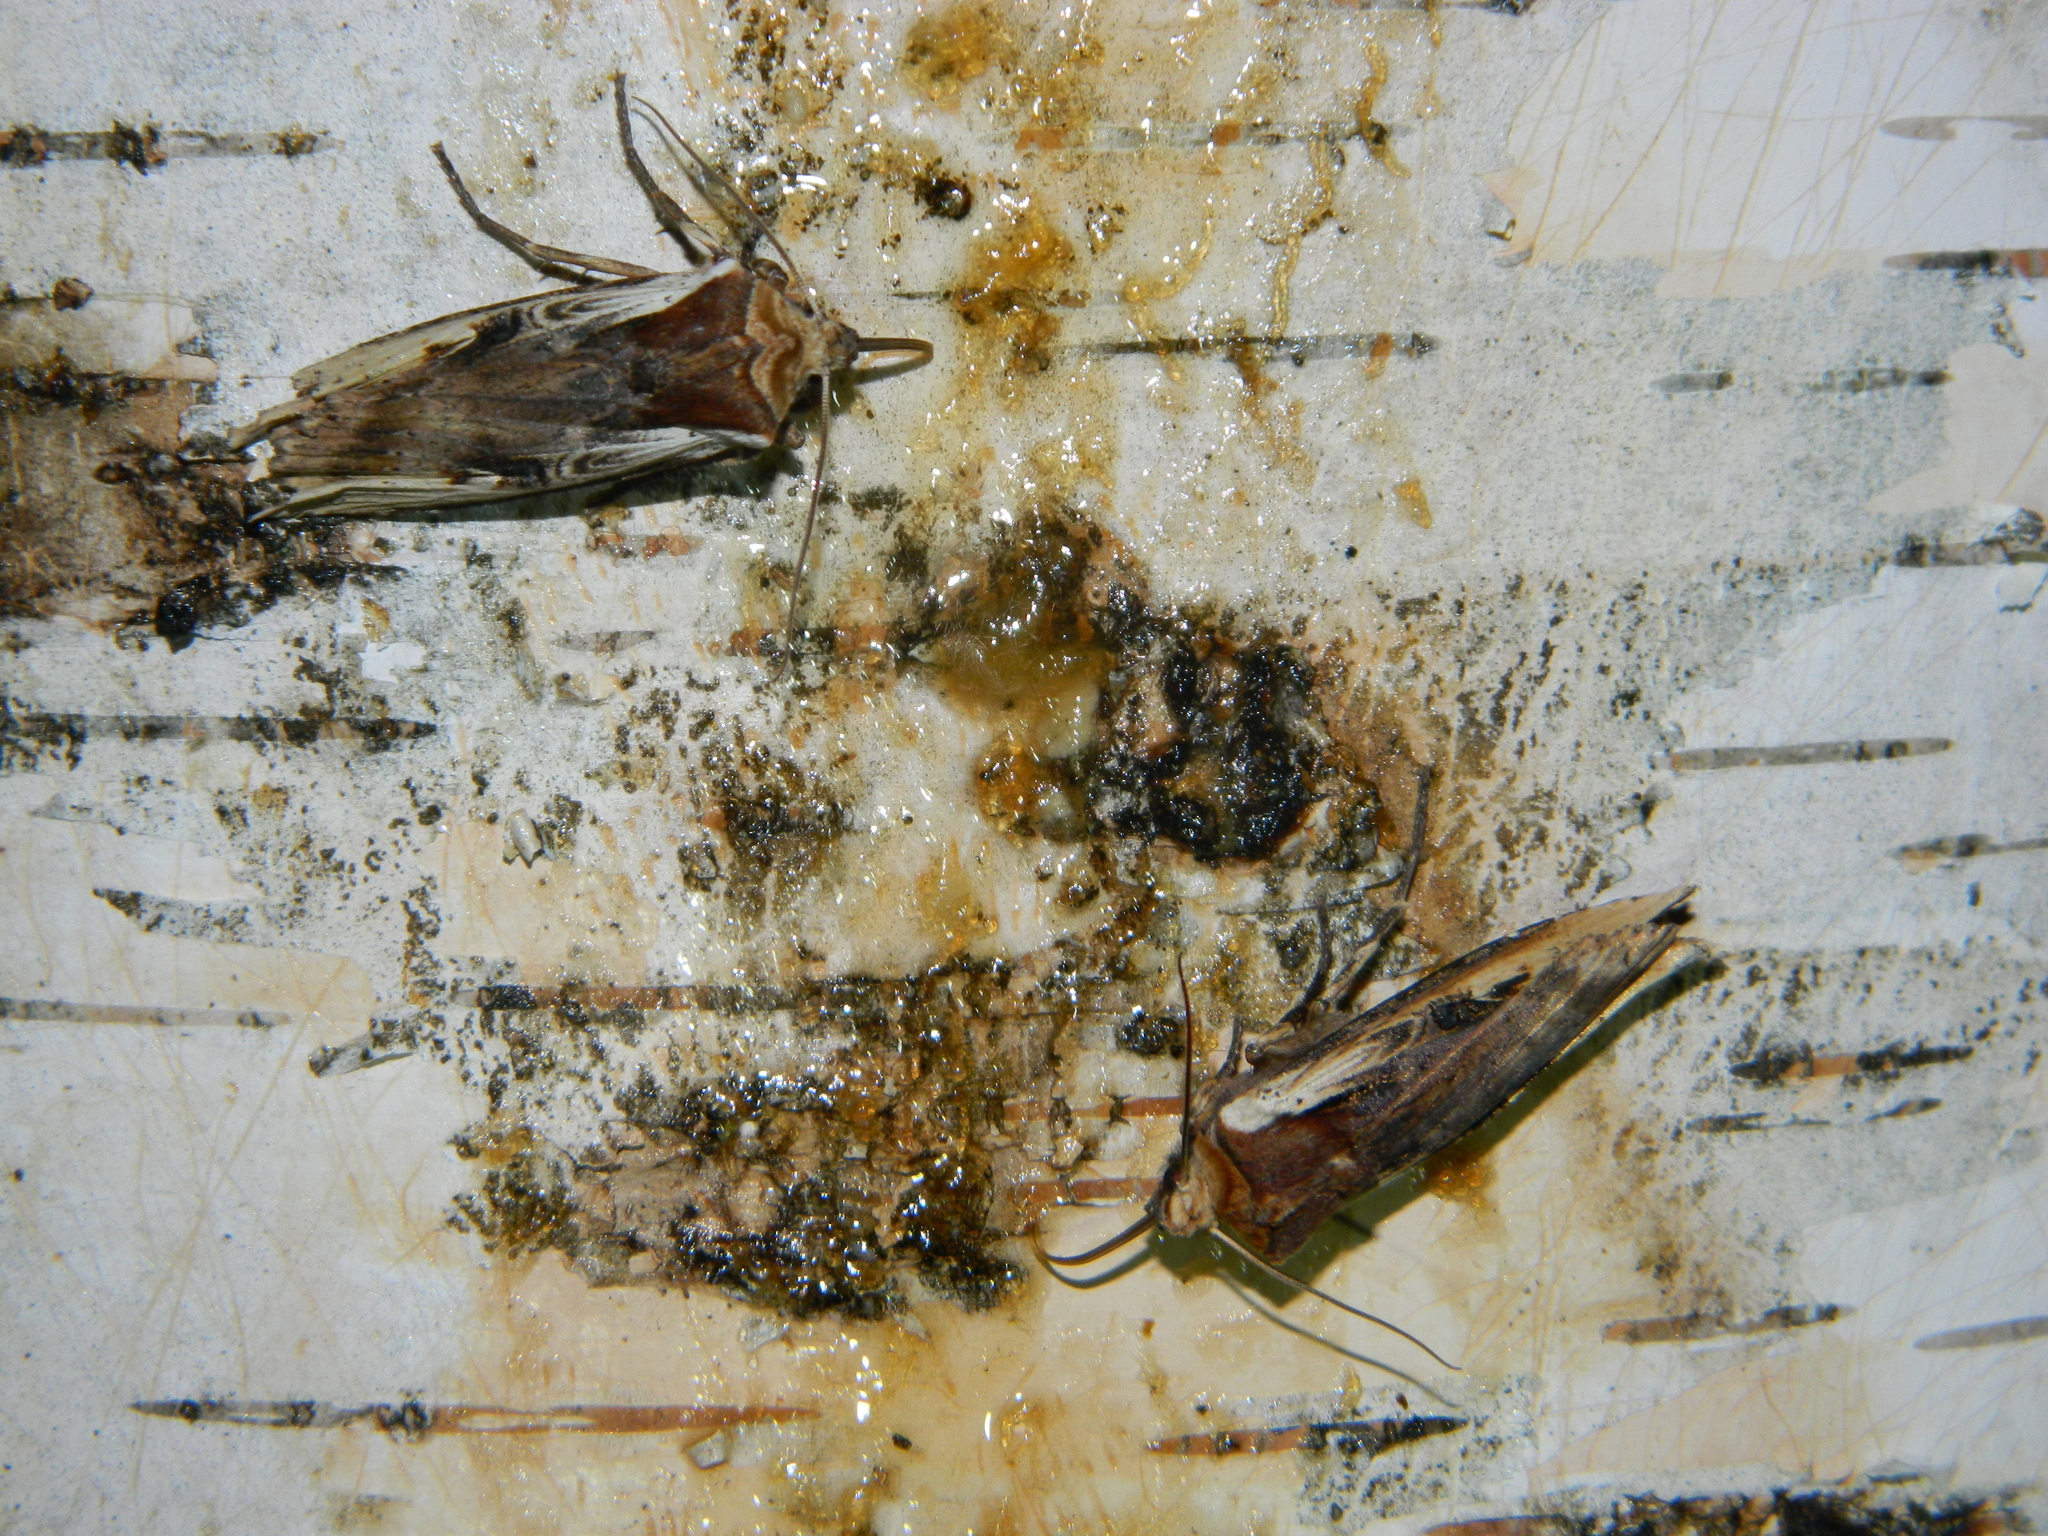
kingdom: Animalia
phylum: Arthropoda
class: Insecta
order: Lepidoptera
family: Noctuidae
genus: Xylena
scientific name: Xylena curvimacula
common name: Dot-and-dash swordgrass moth
